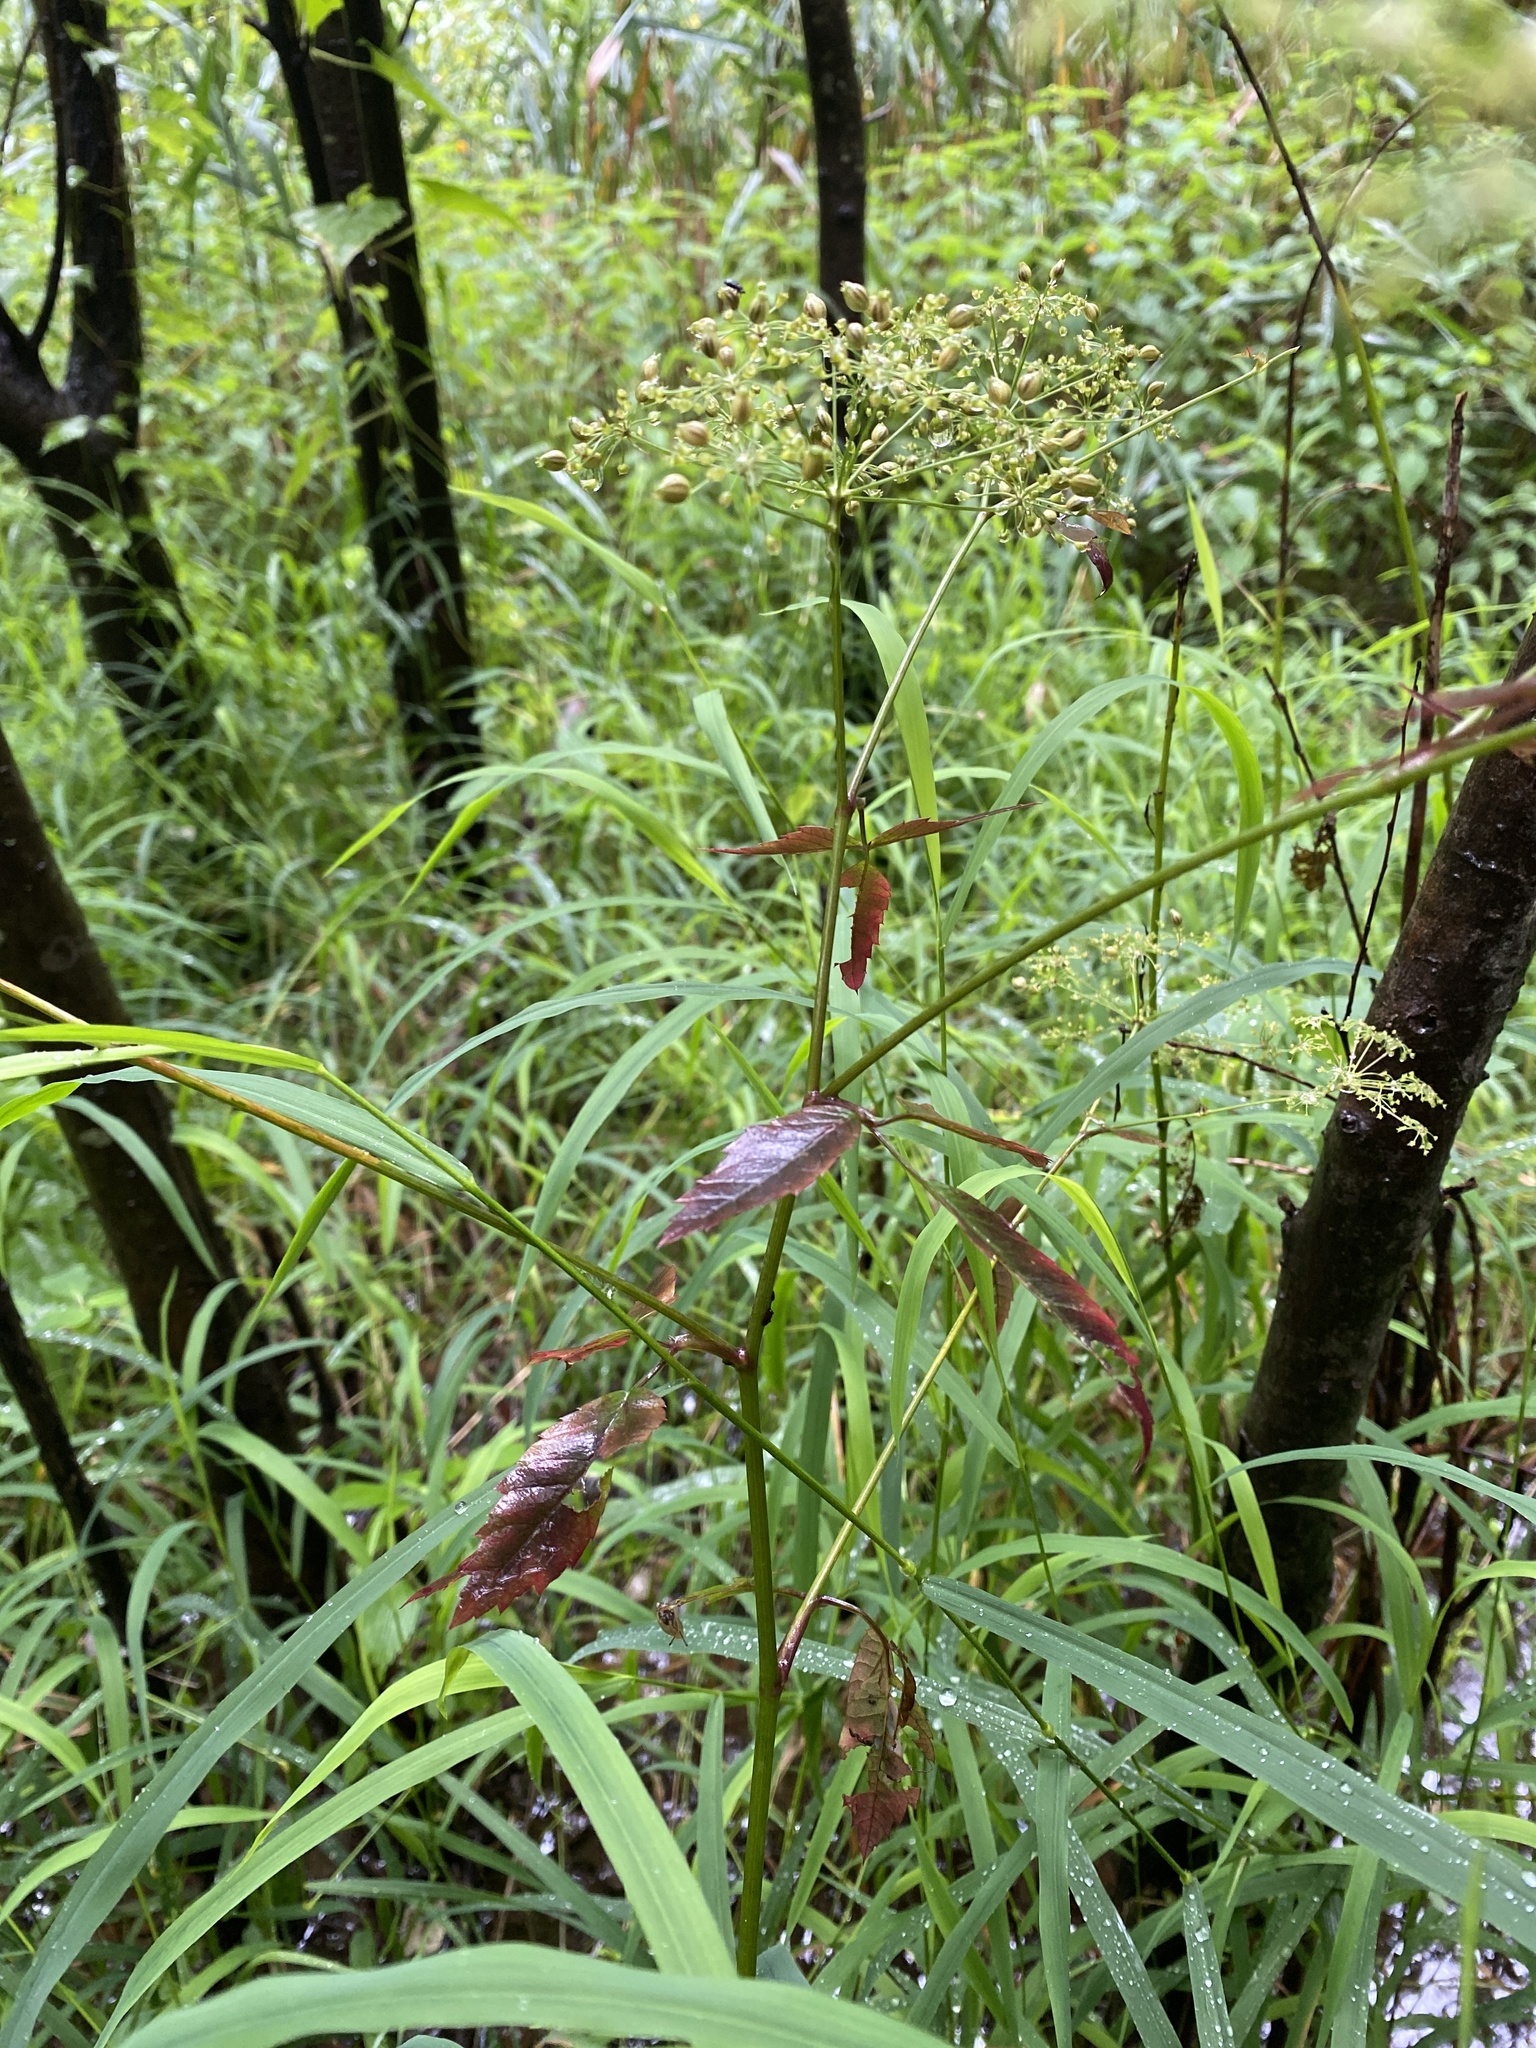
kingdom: Plantae
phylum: Tracheophyta
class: Magnoliopsida
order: Apiales
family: Apiaceae
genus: Cicuta
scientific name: Cicuta maculata
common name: Spotted cowbane
